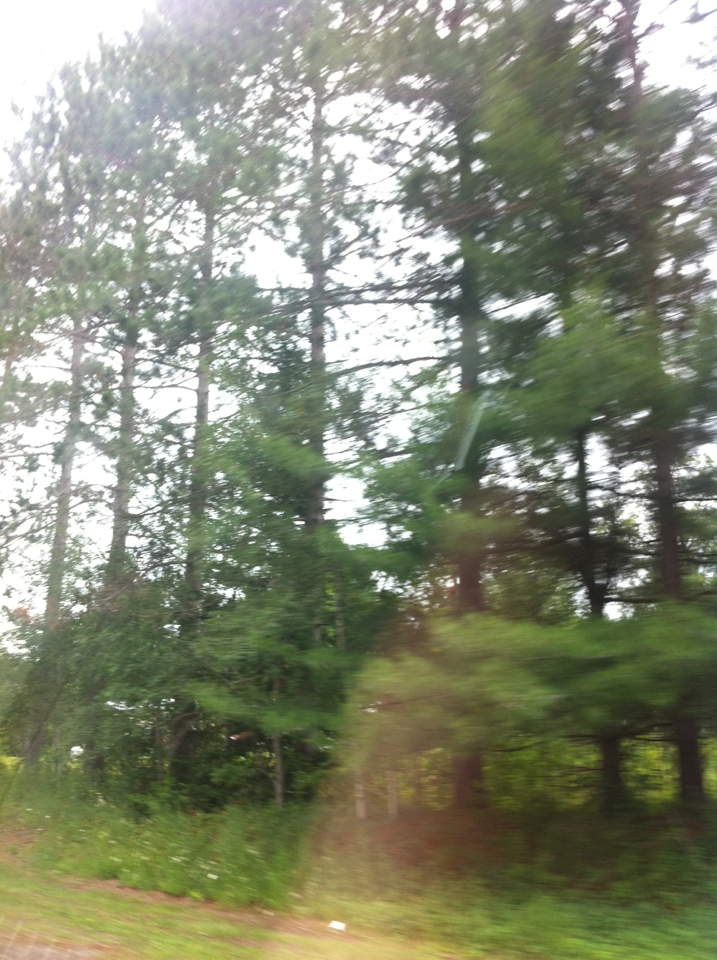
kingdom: Plantae
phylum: Tracheophyta
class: Pinopsida
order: Pinales
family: Pinaceae
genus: Pinus
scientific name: Pinus resinosa
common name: Norway pine
